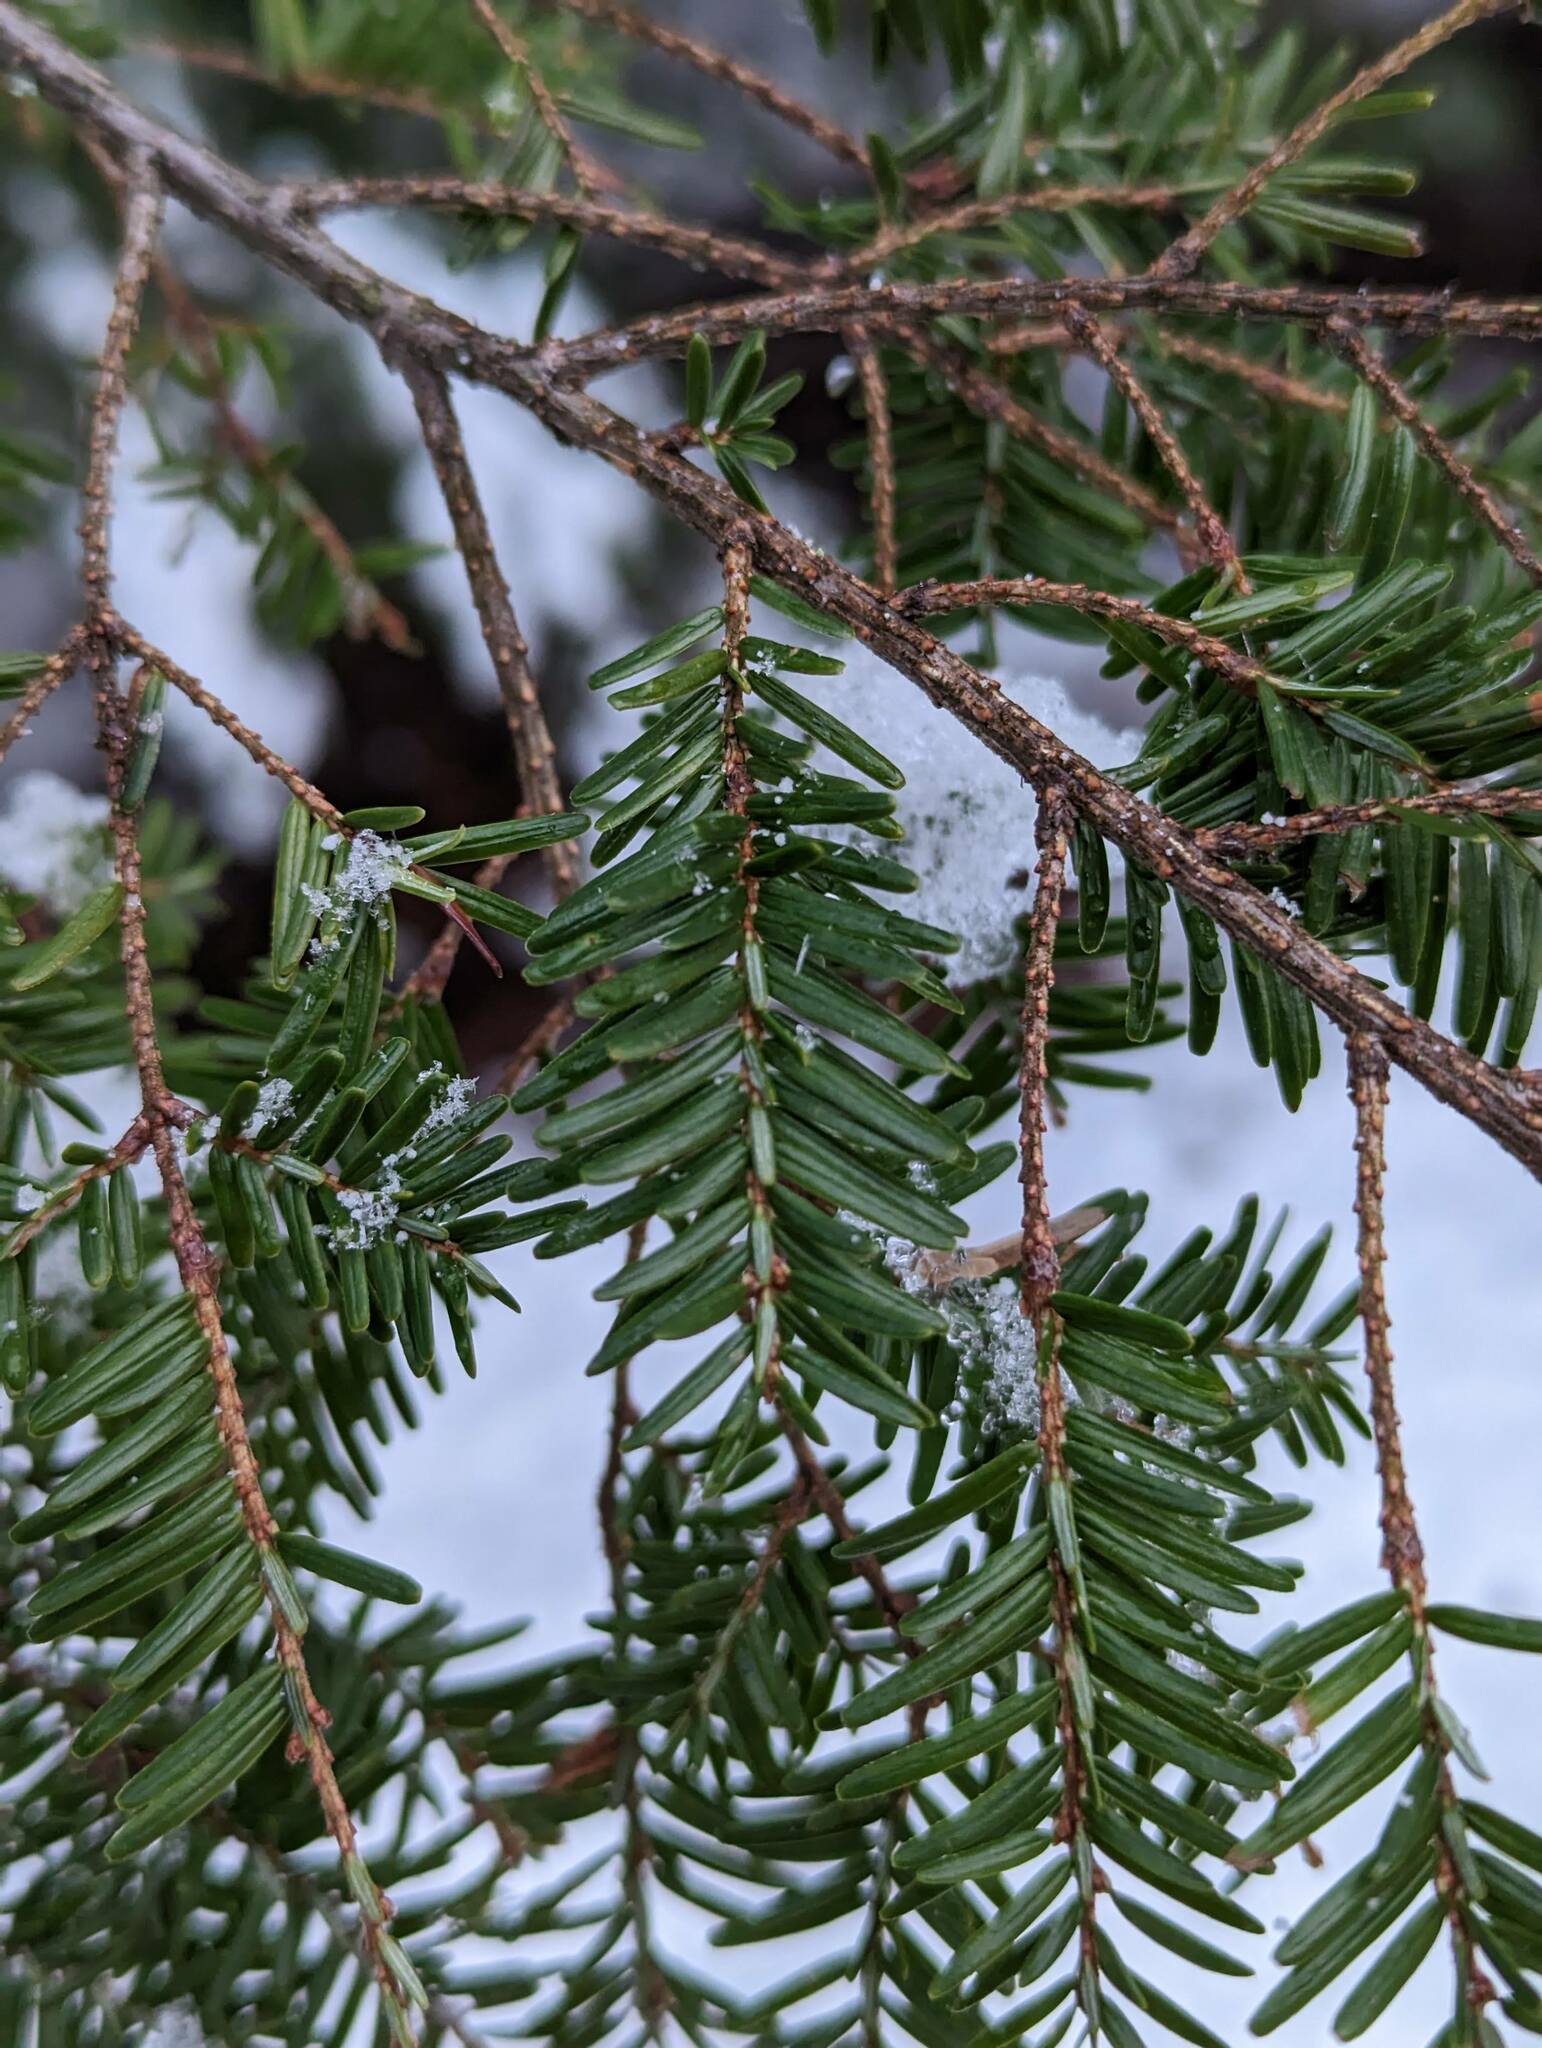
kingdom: Plantae
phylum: Tracheophyta
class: Pinopsida
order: Pinales
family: Pinaceae
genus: Tsuga
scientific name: Tsuga canadensis
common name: Eastern hemlock
